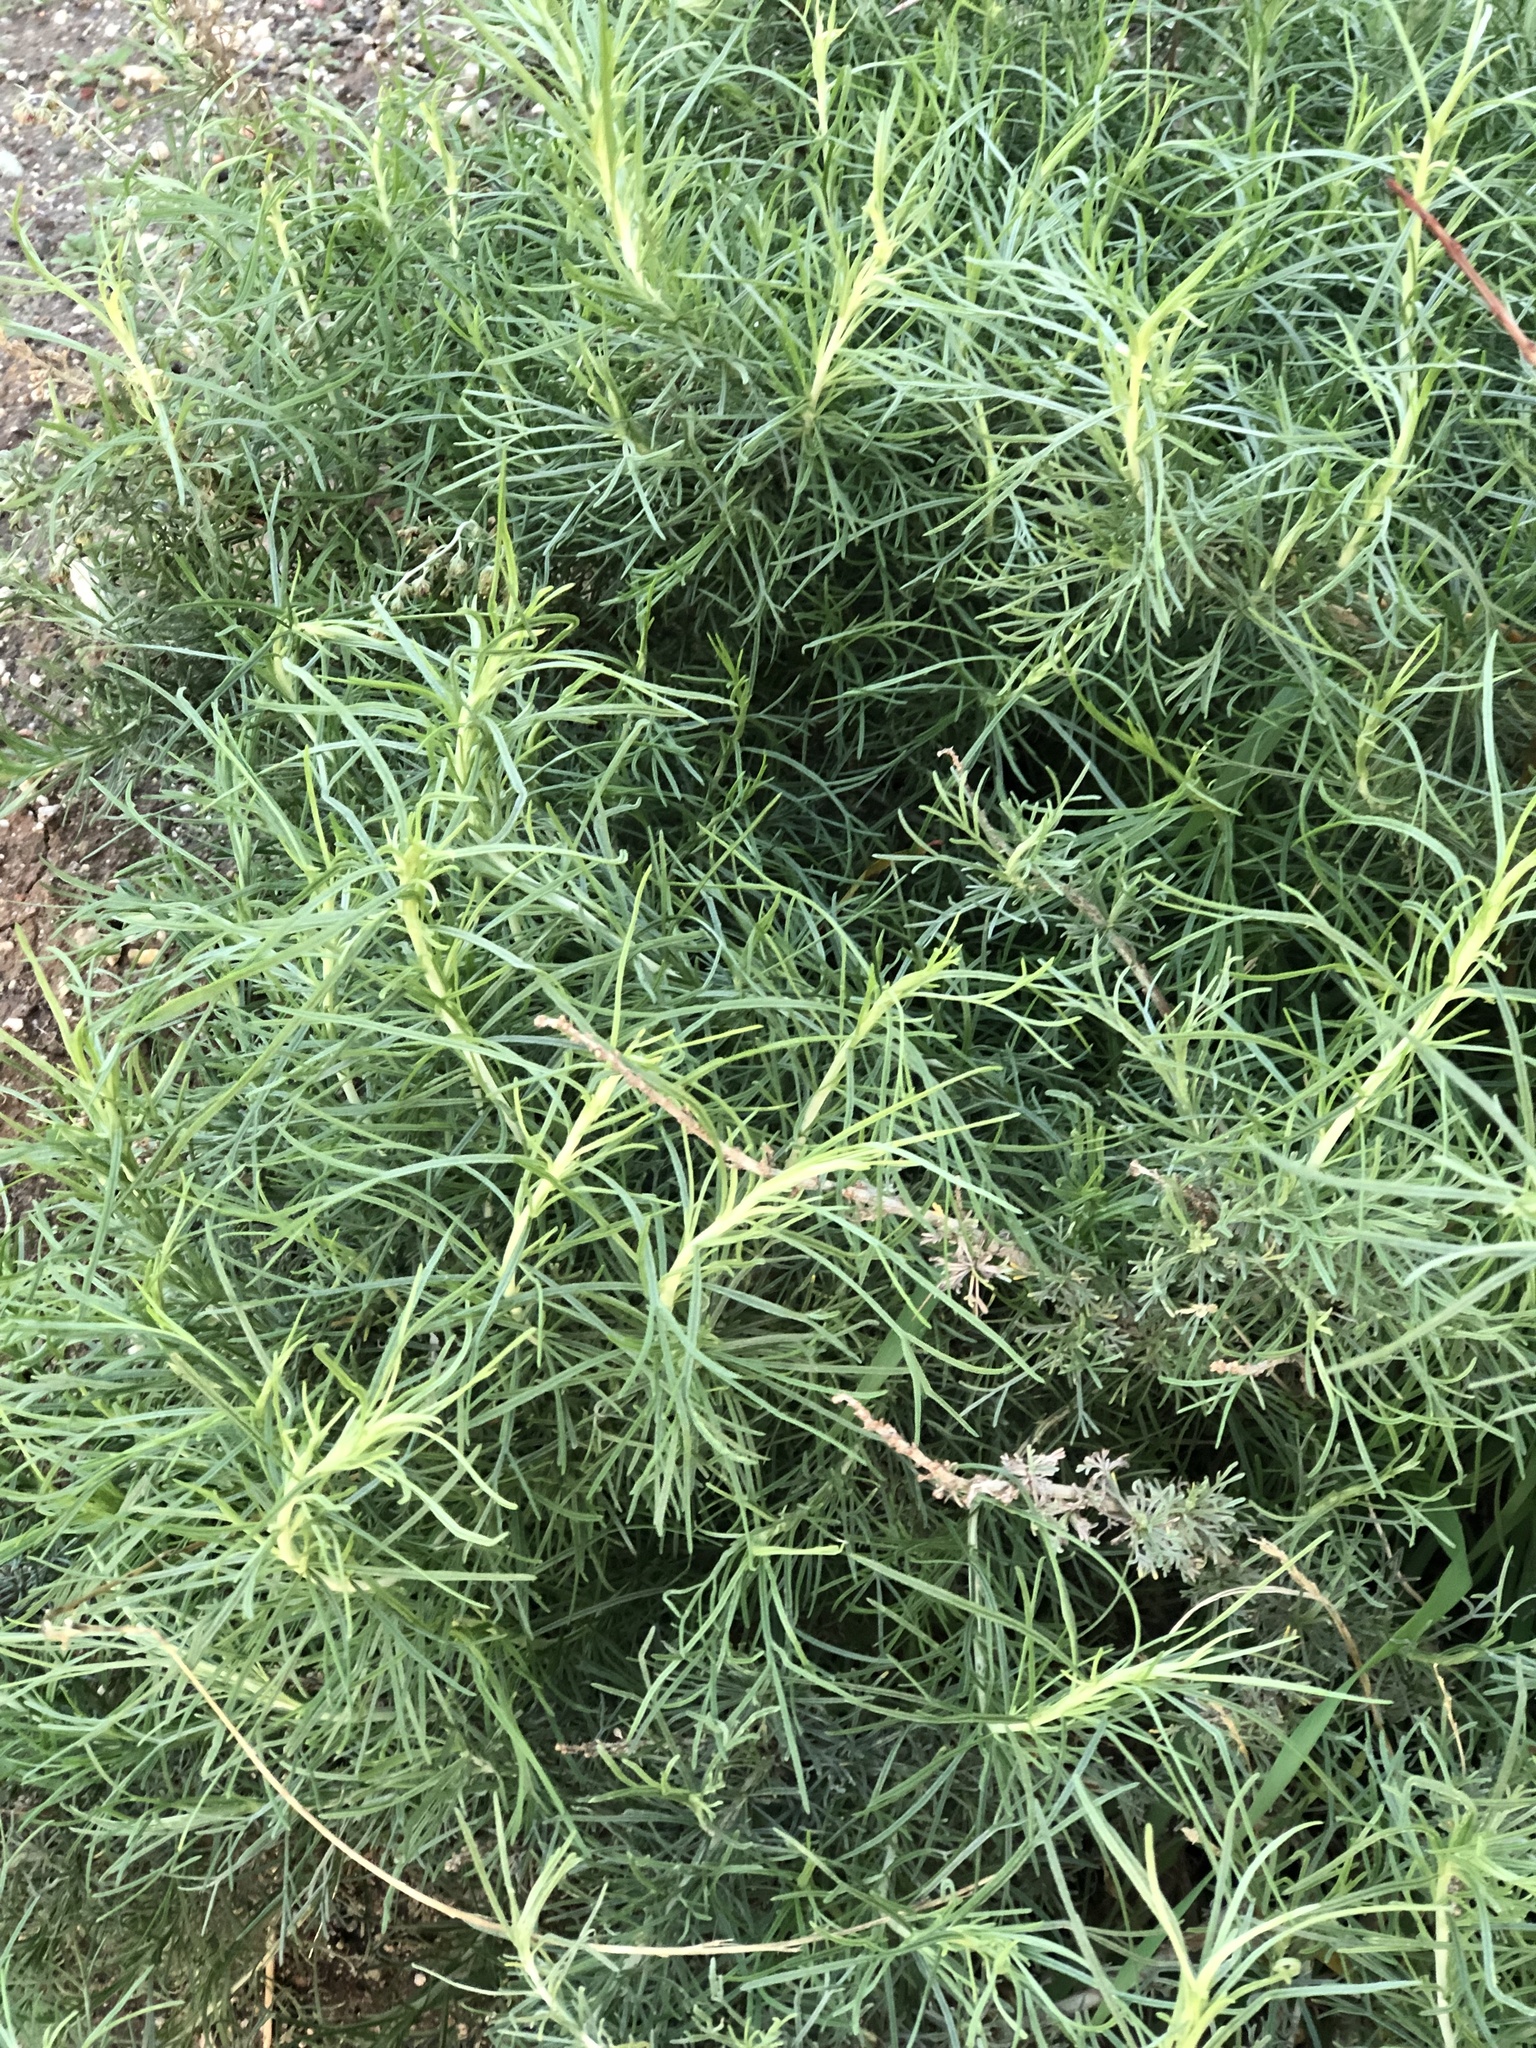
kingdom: Plantae
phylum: Tracheophyta
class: Magnoliopsida
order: Asterales
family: Asteraceae
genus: Artemisia
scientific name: Artemisia californica
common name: California sagebrush
